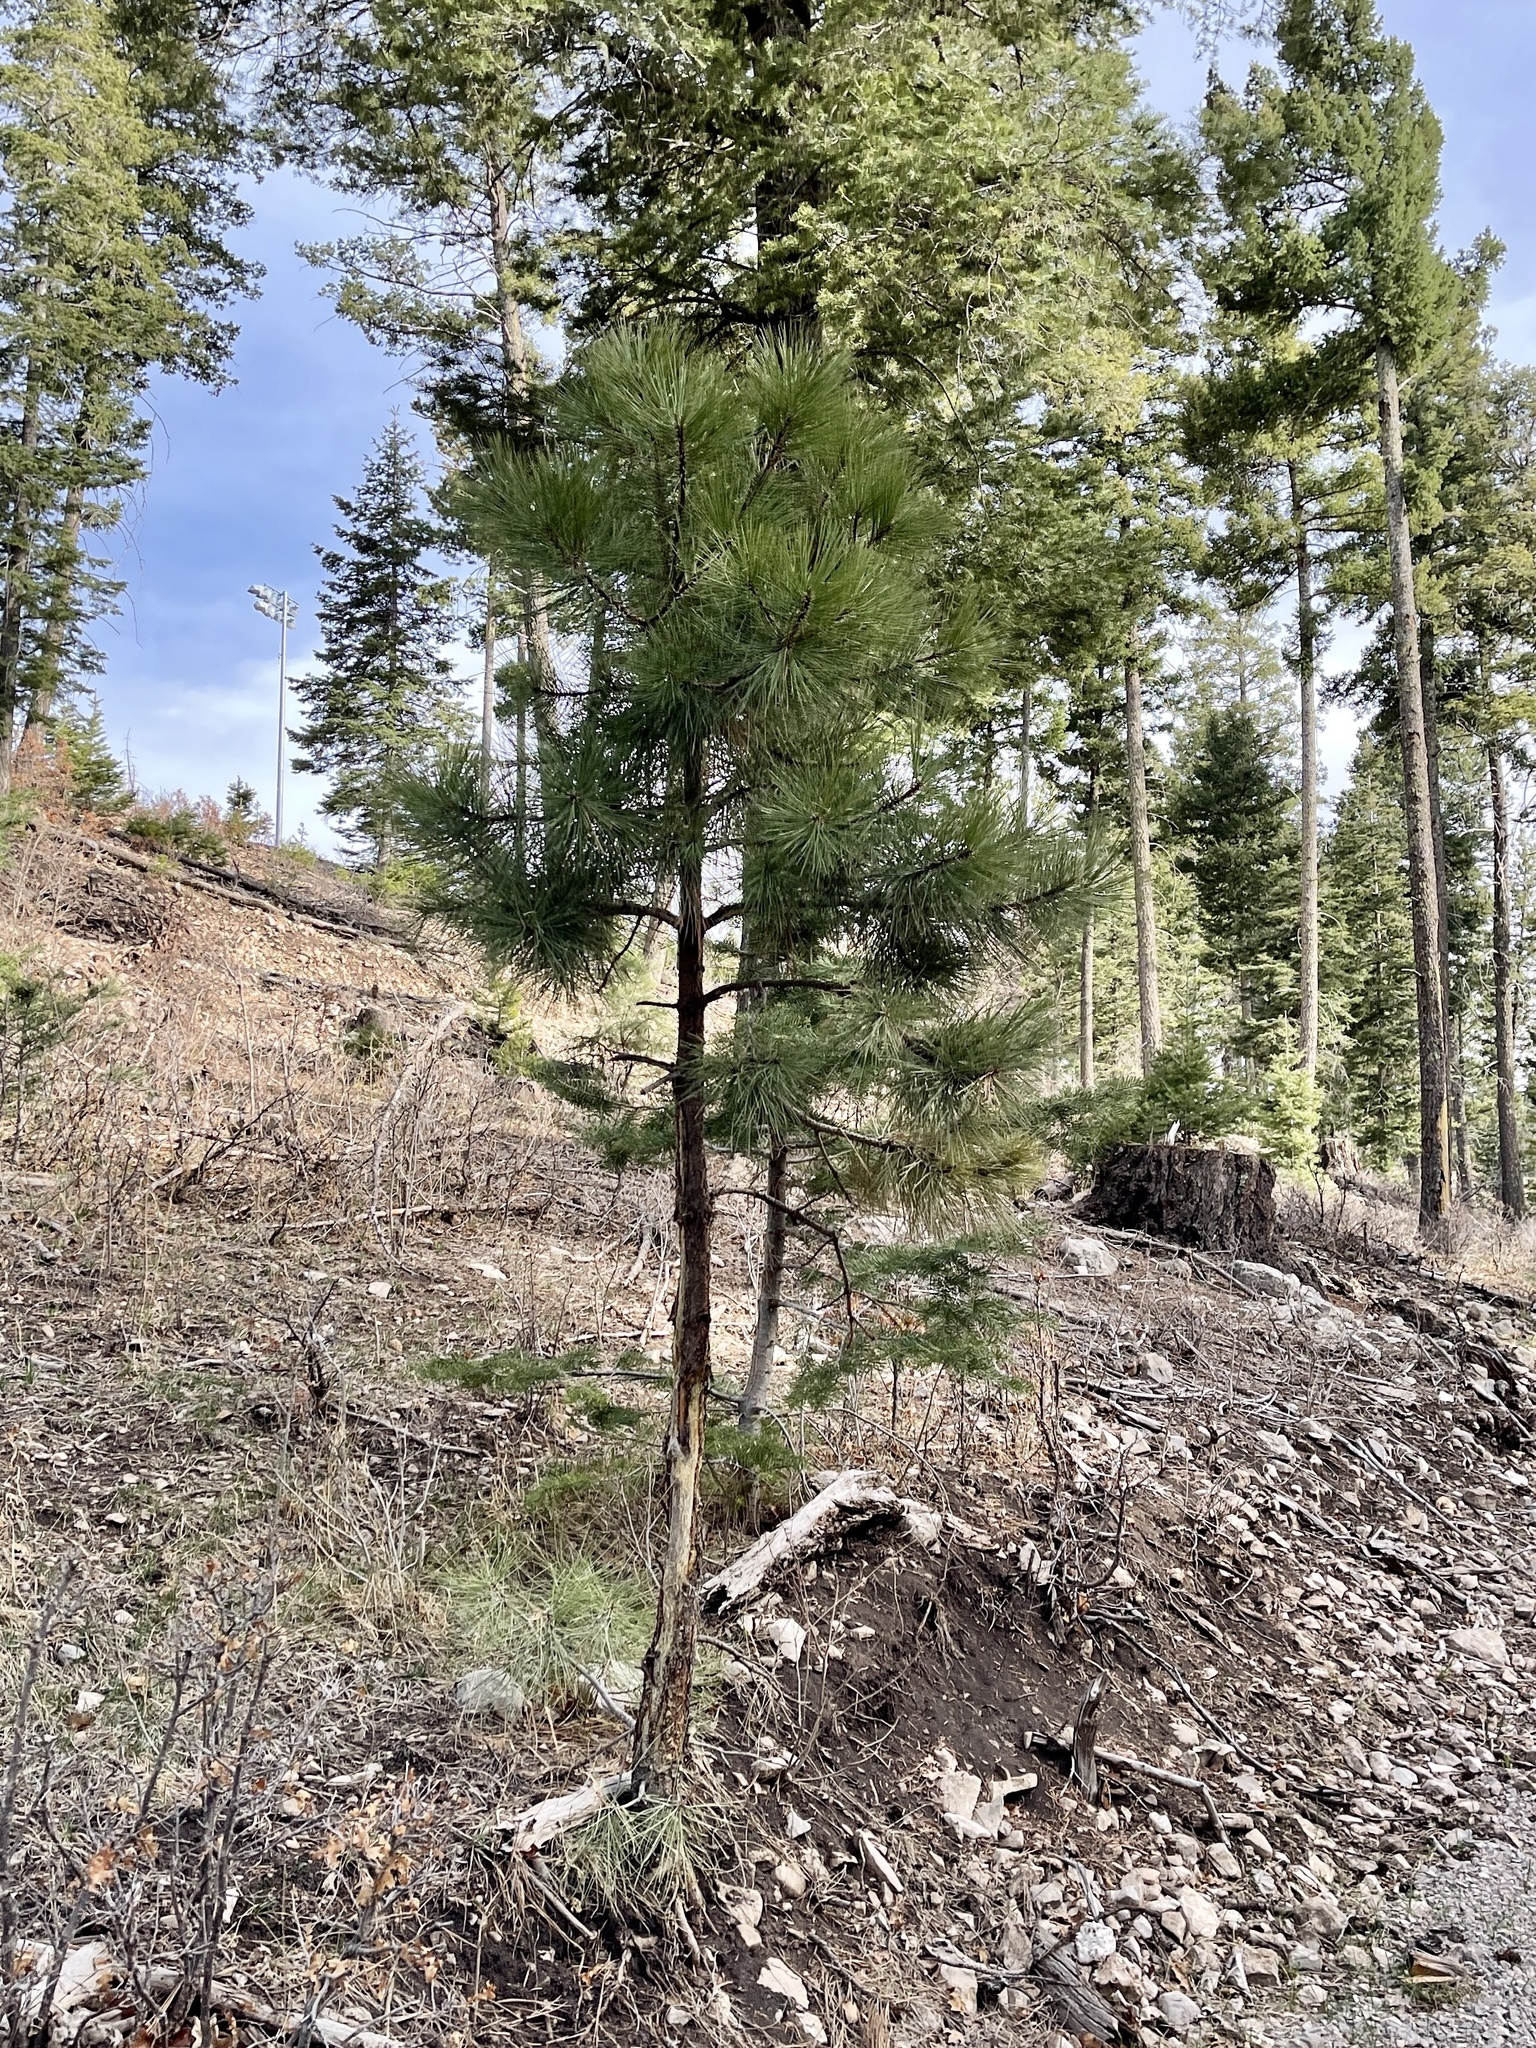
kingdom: Plantae
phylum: Tracheophyta
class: Pinopsida
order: Pinales
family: Pinaceae
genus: Pinus
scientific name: Pinus ponderosa
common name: Western yellow-pine
